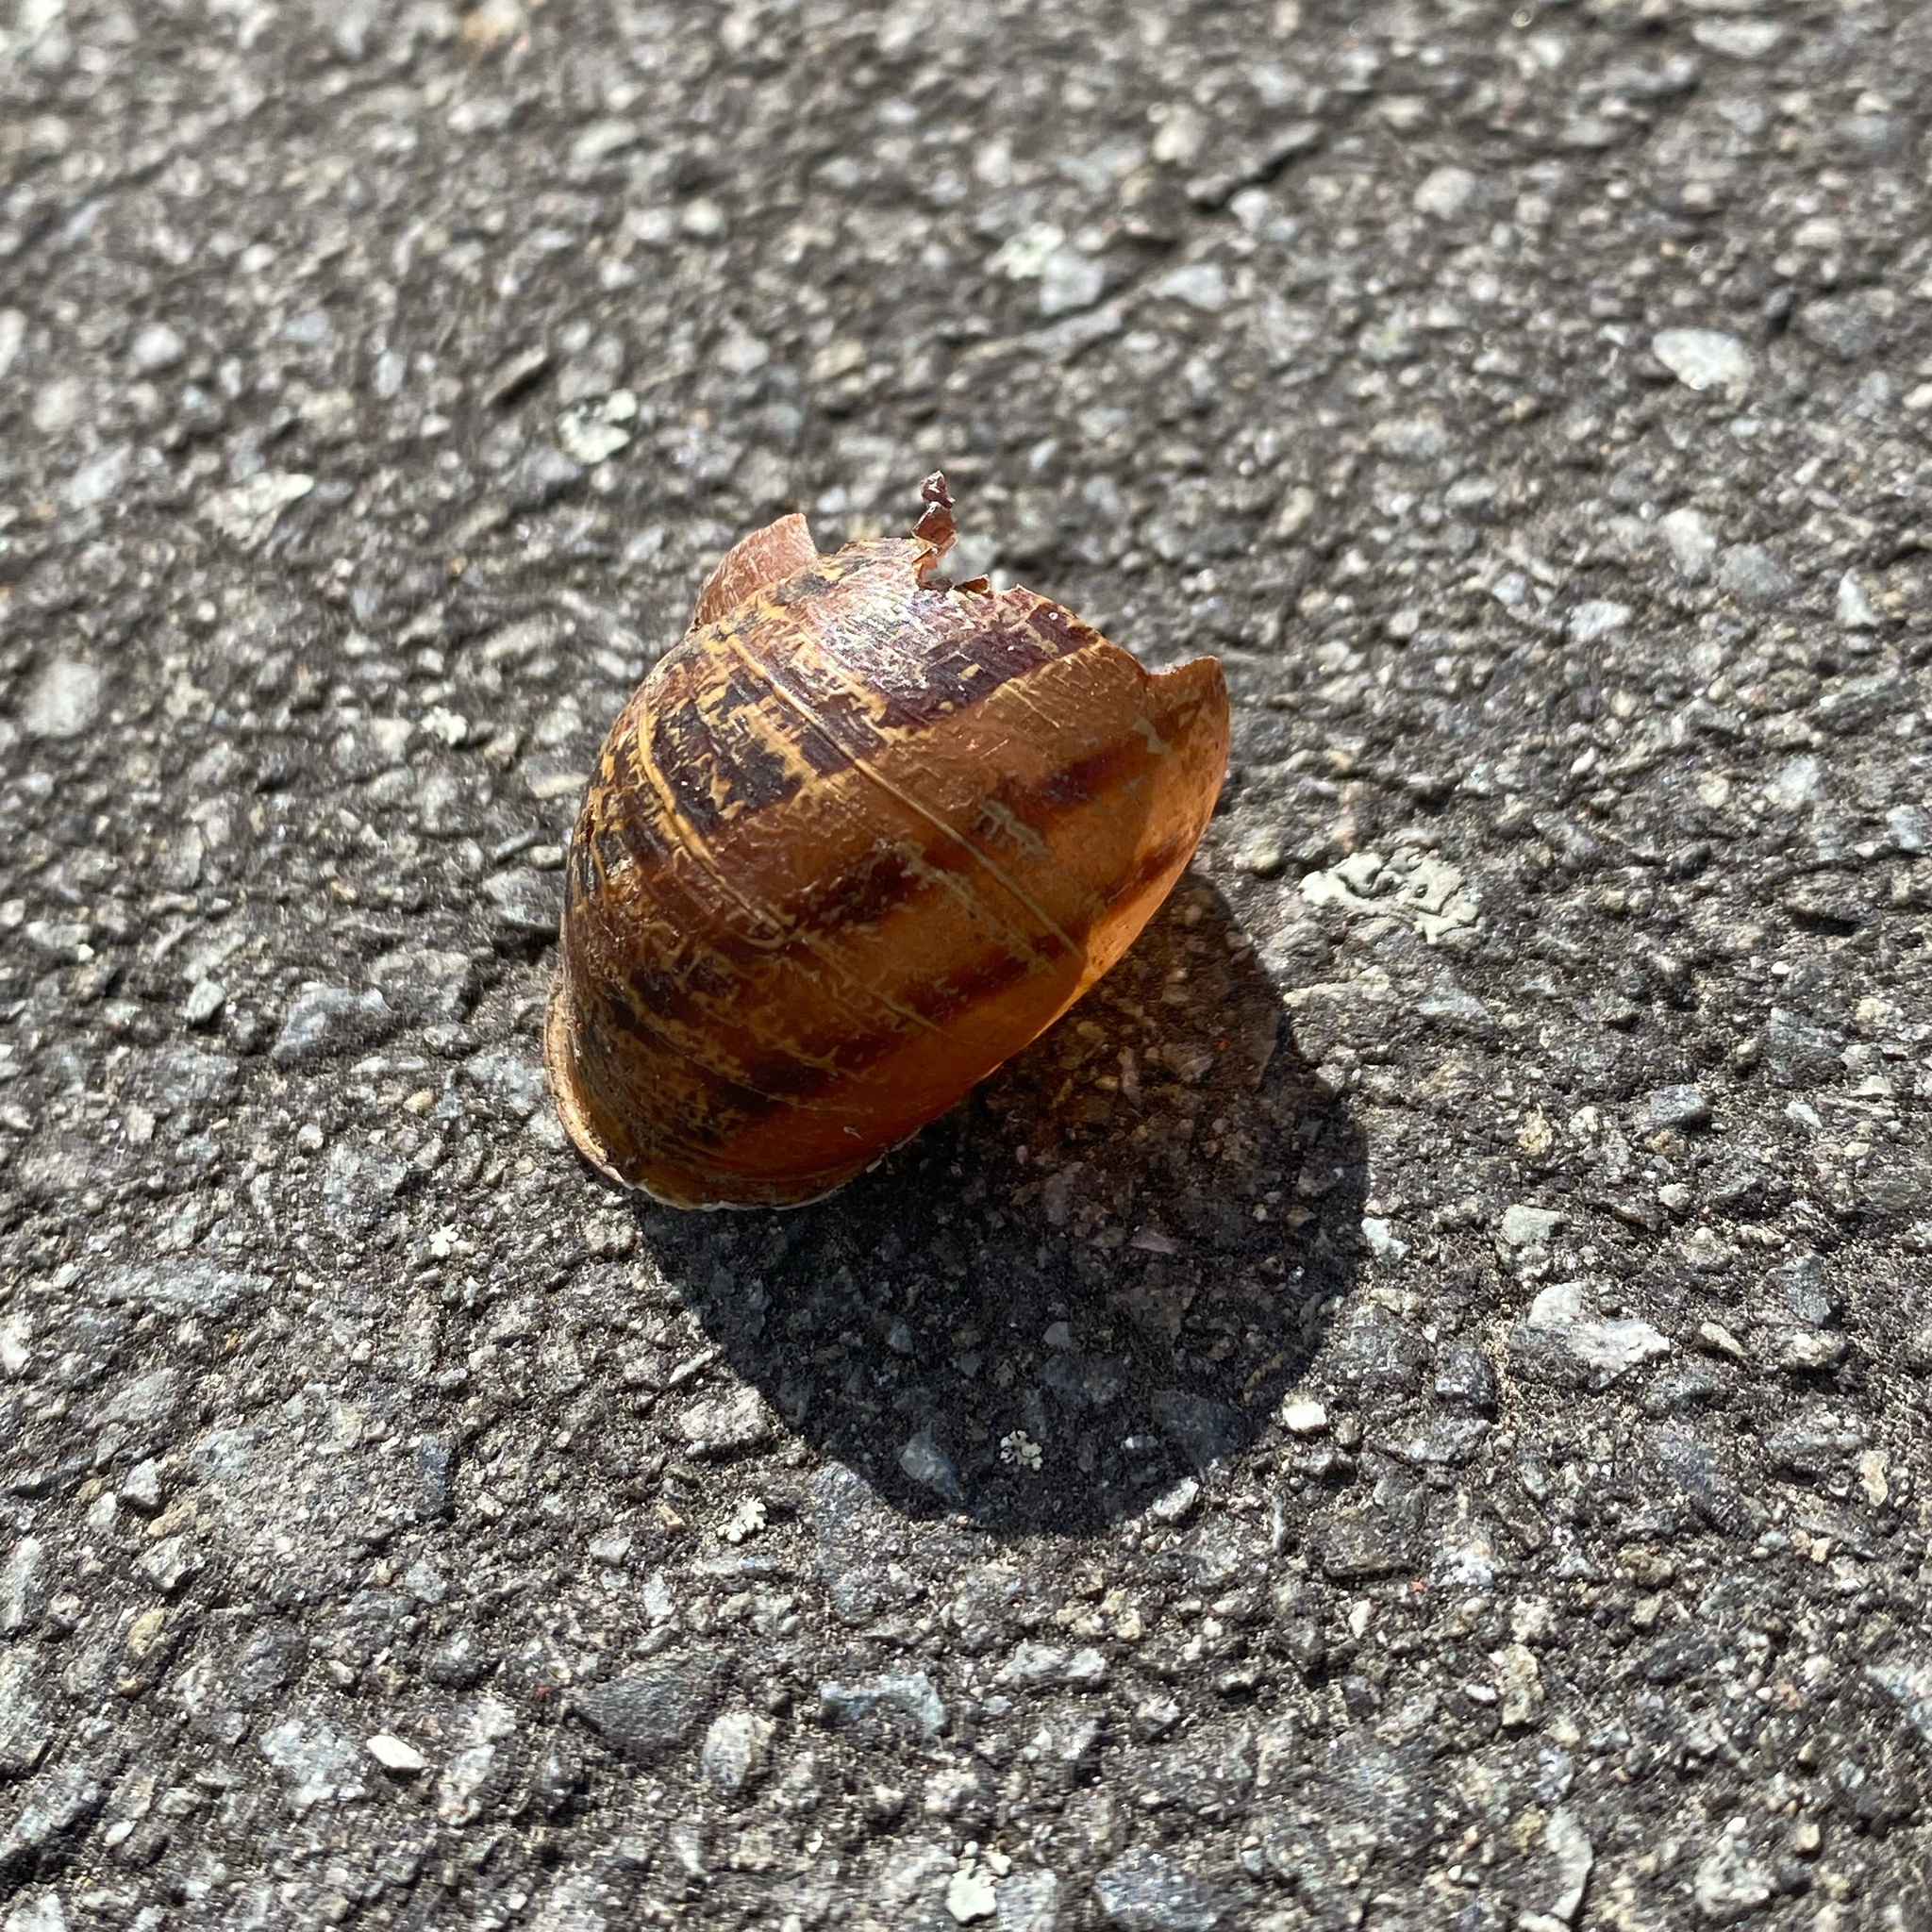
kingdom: Animalia
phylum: Mollusca
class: Gastropoda
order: Stylommatophora
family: Helicidae
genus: Cornu
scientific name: Cornu aspersum
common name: Brown garden snail
